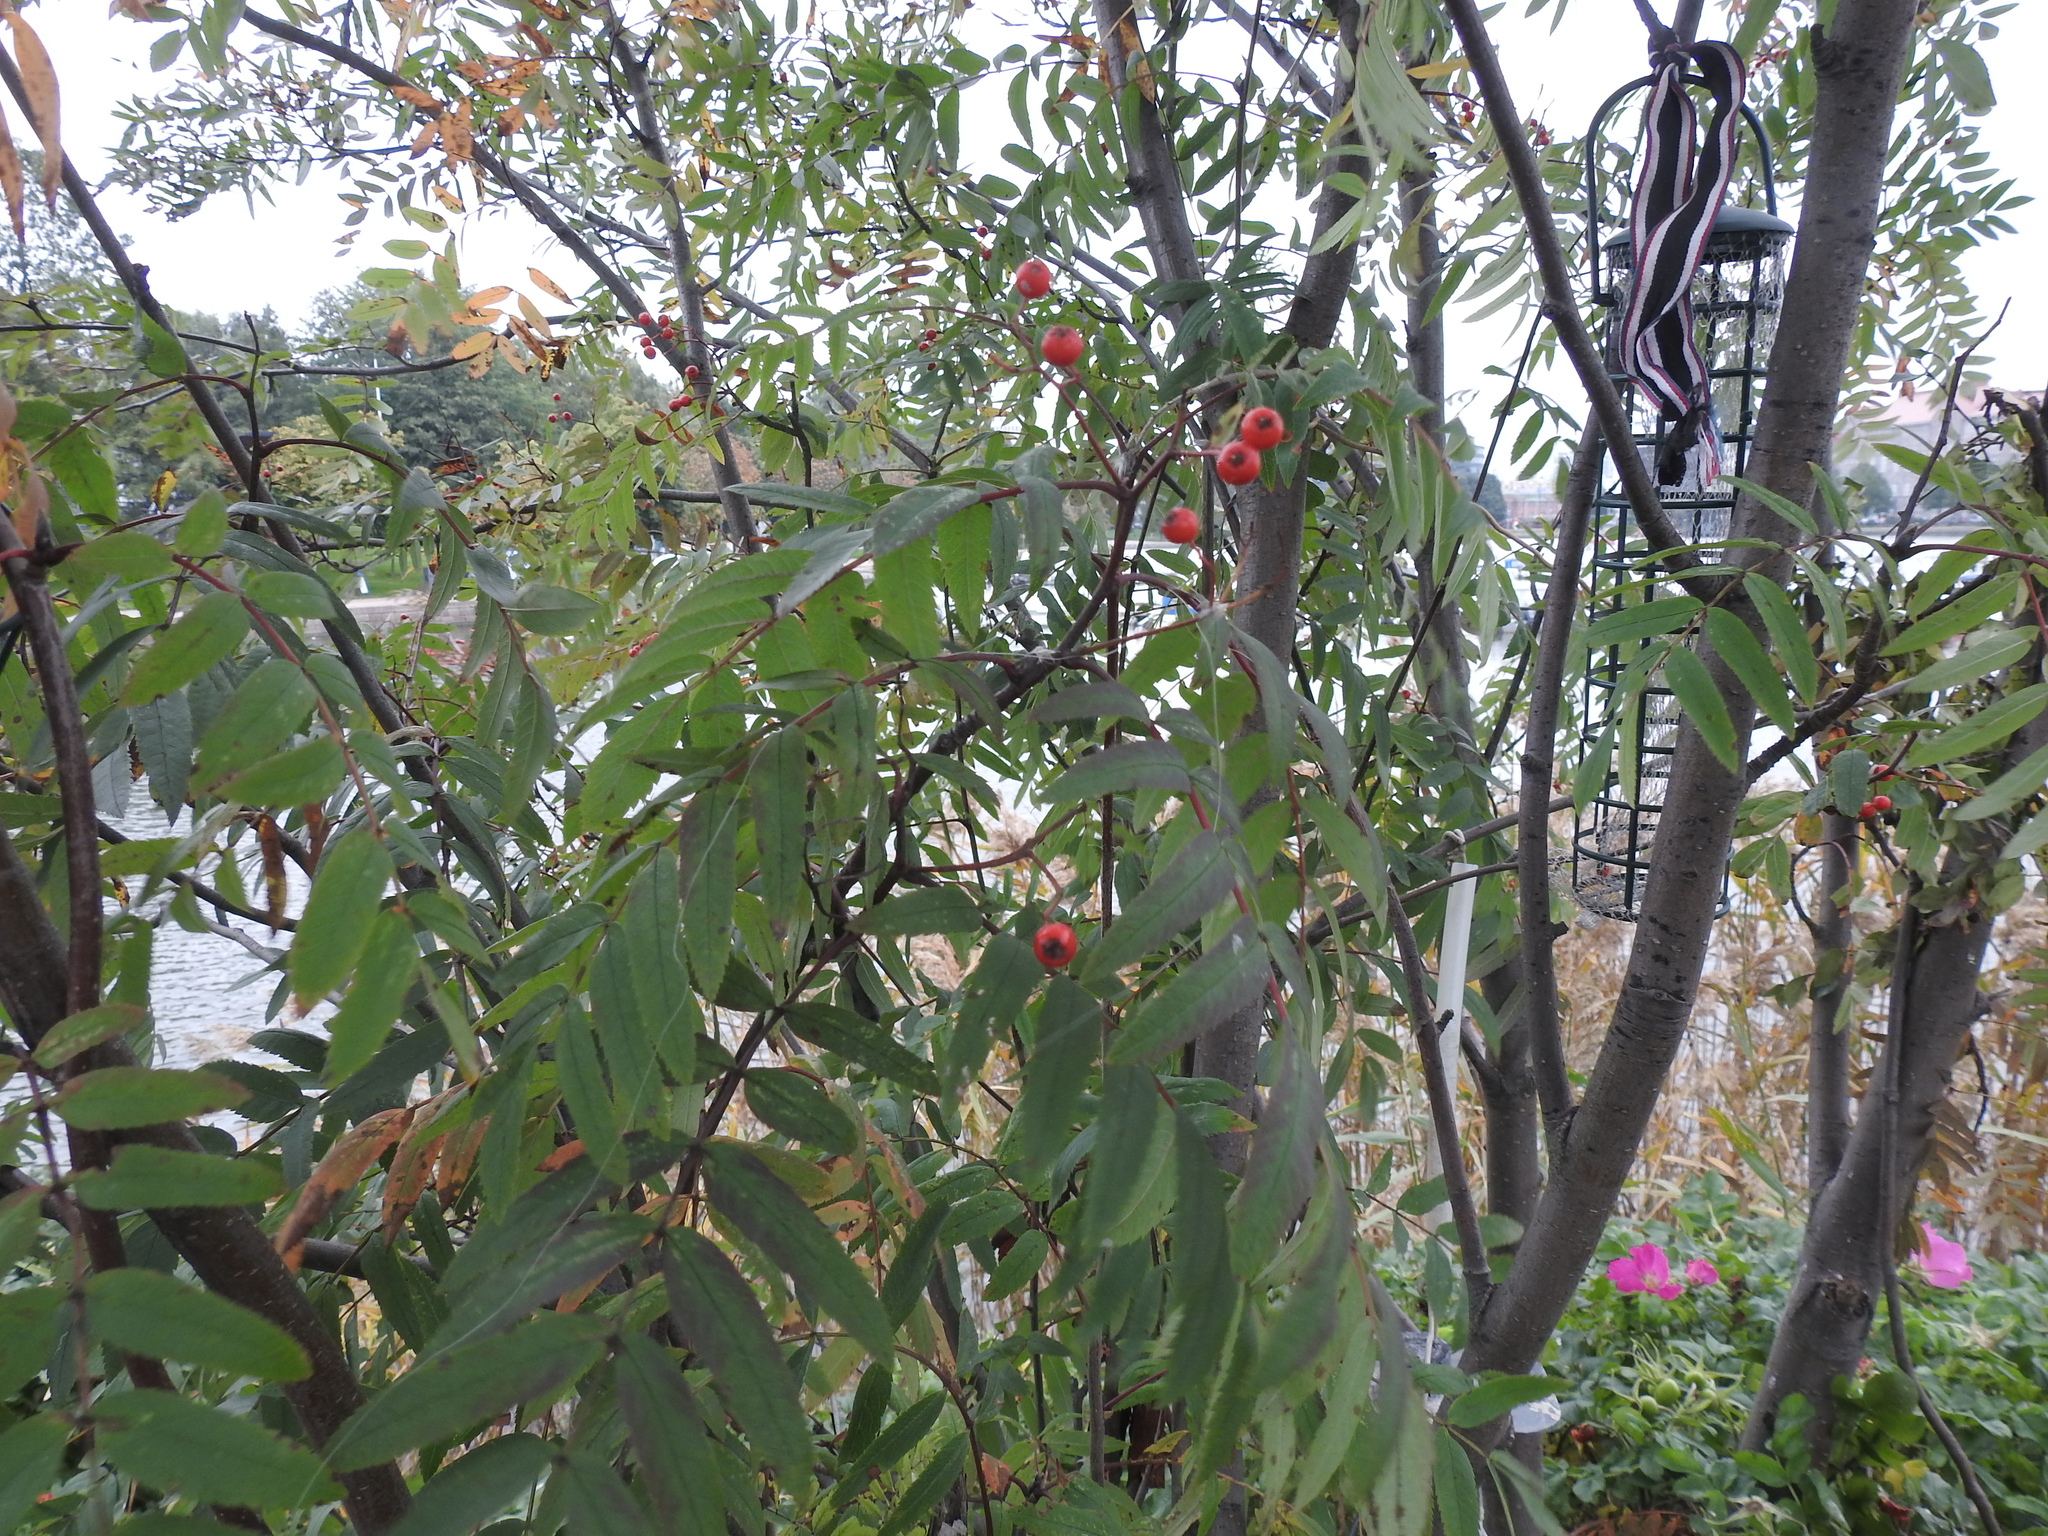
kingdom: Plantae
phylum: Tracheophyta
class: Magnoliopsida
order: Rosales
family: Rosaceae
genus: Sorbus
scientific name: Sorbus aucuparia
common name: Rowan
